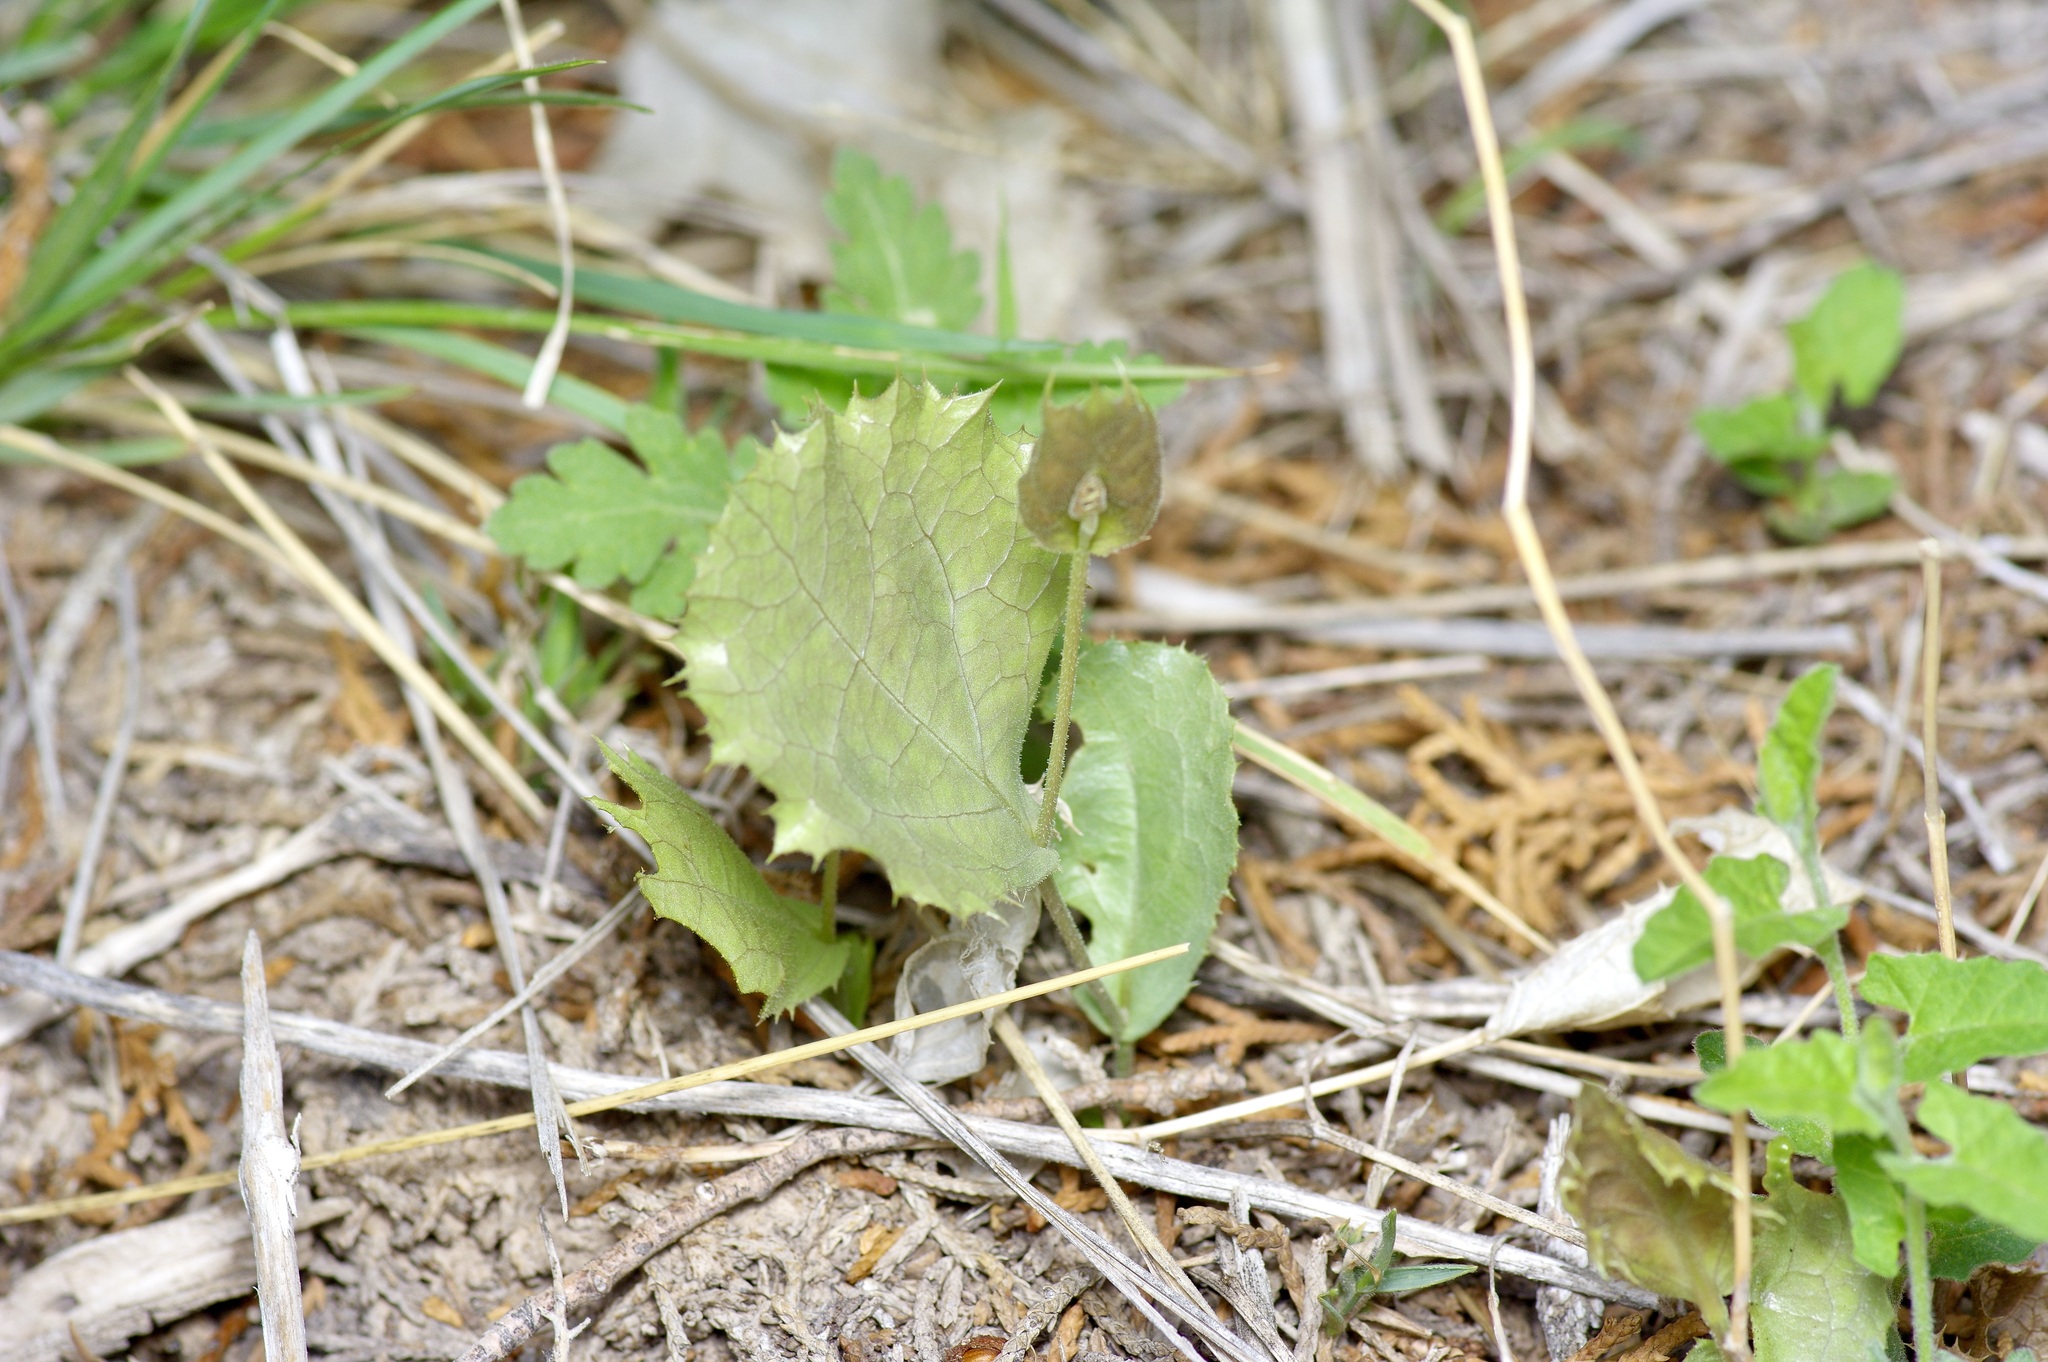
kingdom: Plantae
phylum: Tracheophyta
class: Magnoliopsida
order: Asterales
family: Asteraceae
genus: Acourtia
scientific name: Acourtia nana
